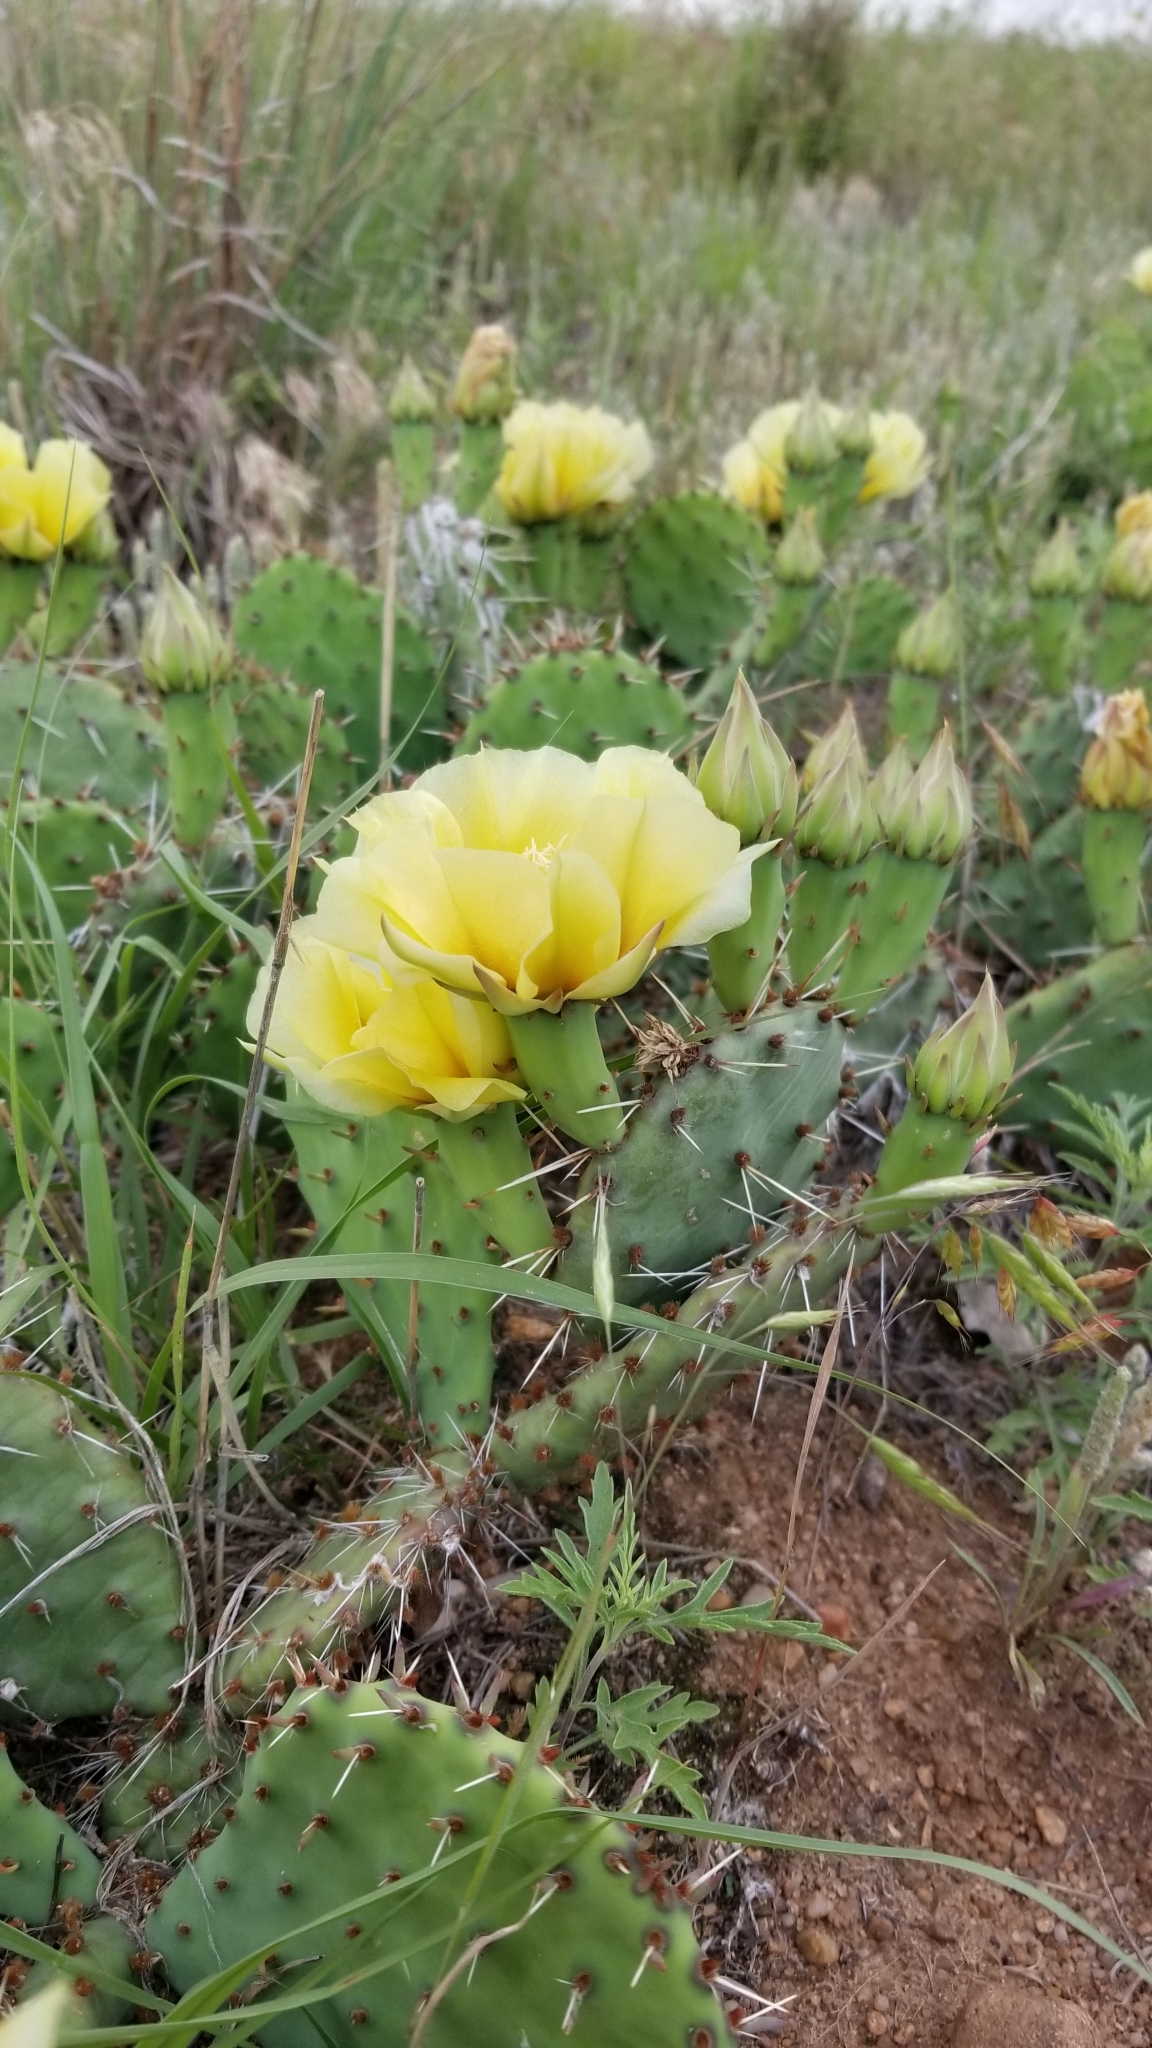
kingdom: Plantae
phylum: Tracheophyta
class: Magnoliopsida
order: Caryophyllales
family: Cactaceae
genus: Opuntia
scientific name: Opuntia macrorhiza
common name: Grassland pricklypear
